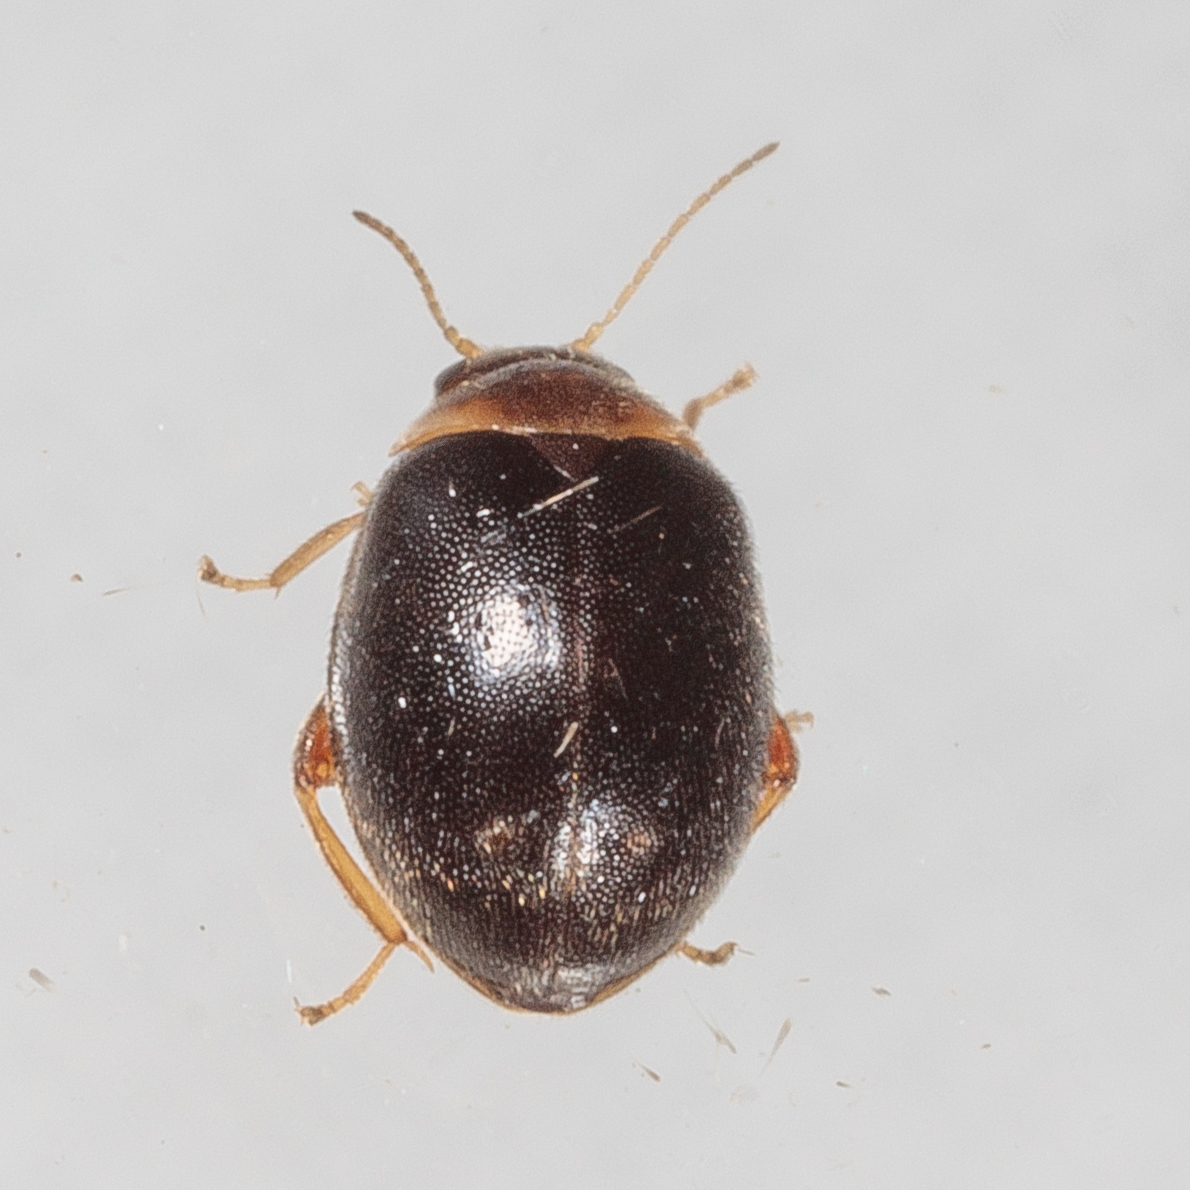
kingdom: Animalia
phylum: Arthropoda
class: Insecta
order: Coleoptera
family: Scirtidae
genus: Scirtes
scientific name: Scirtes orbiculatus
